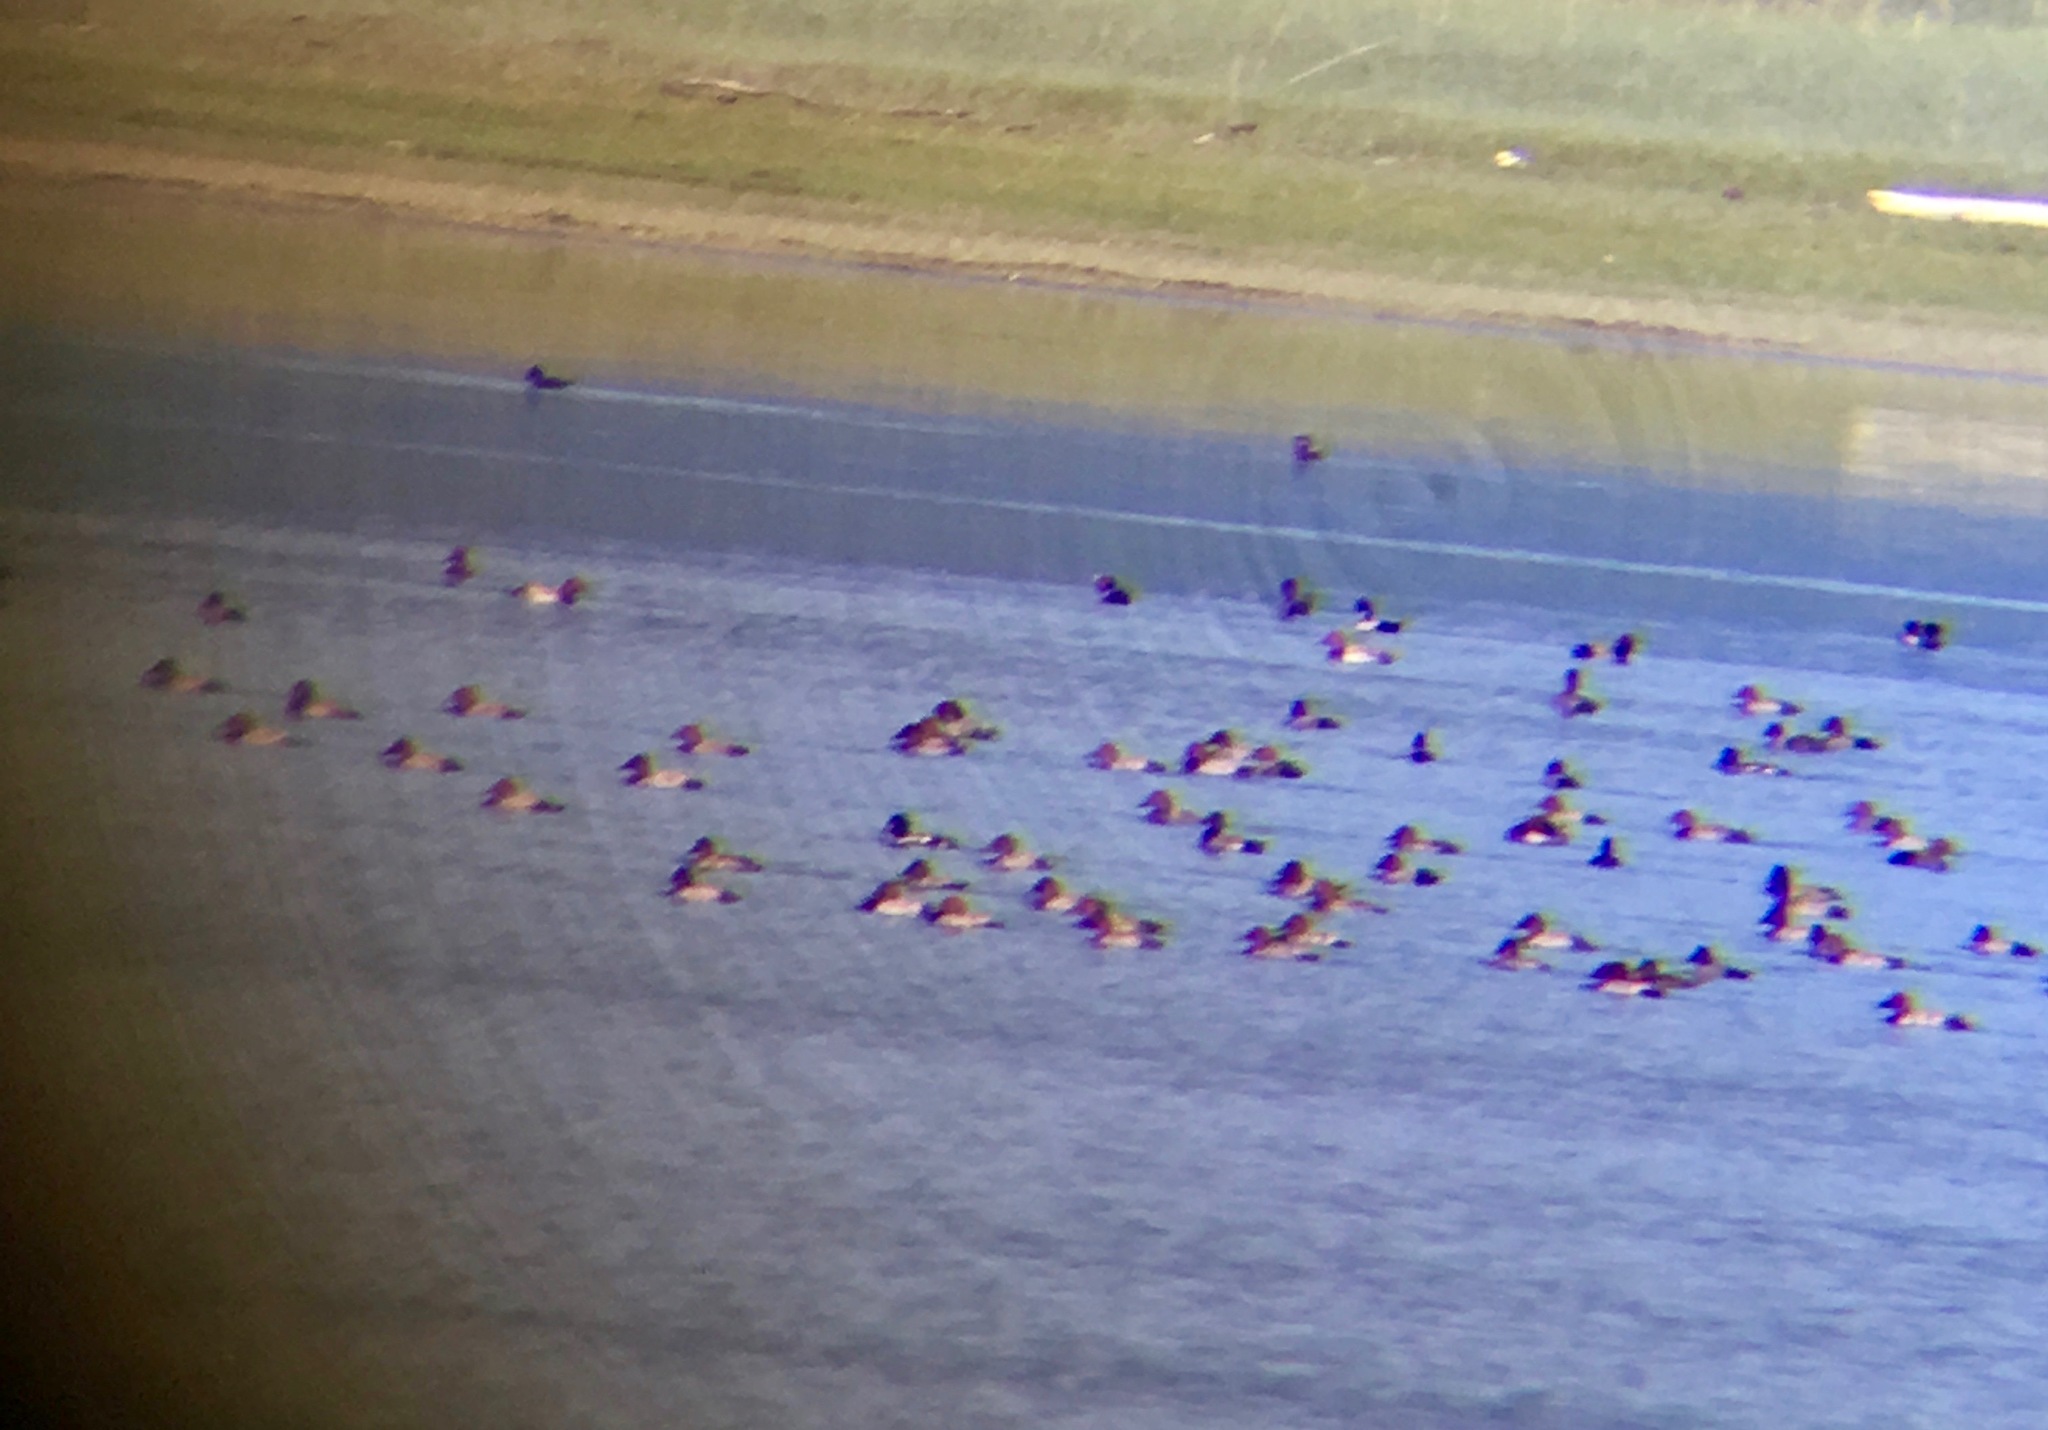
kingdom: Animalia
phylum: Chordata
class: Aves
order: Anseriformes
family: Anatidae
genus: Aythya
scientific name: Aythya ferina
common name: Common pochard
